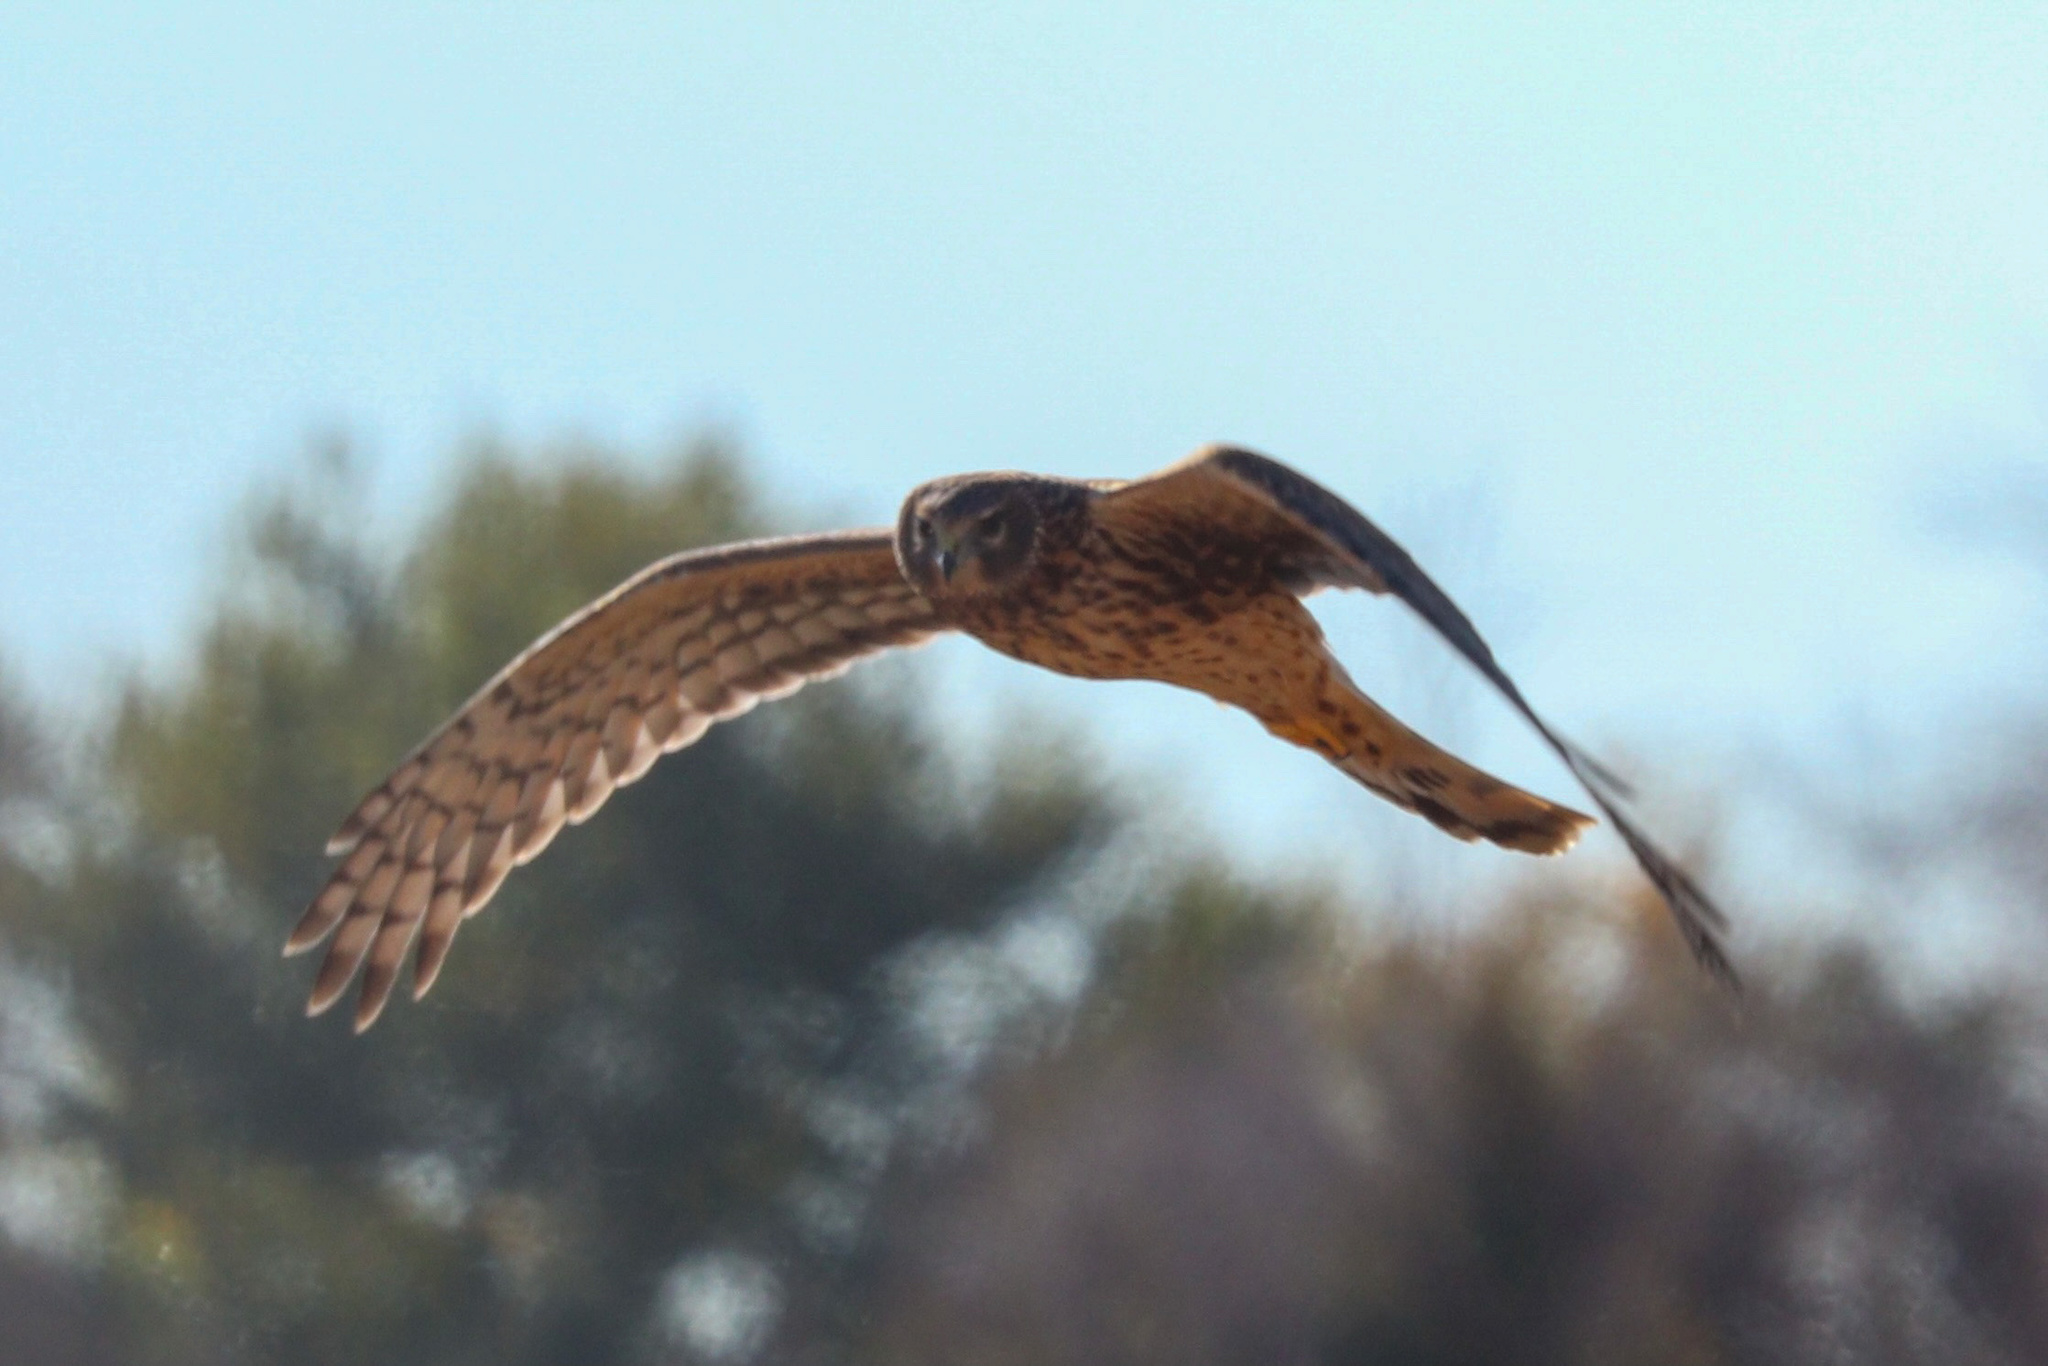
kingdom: Animalia
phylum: Chordata
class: Aves
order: Accipitriformes
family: Accipitridae
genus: Circus
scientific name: Circus cyaneus
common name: Hen harrier
